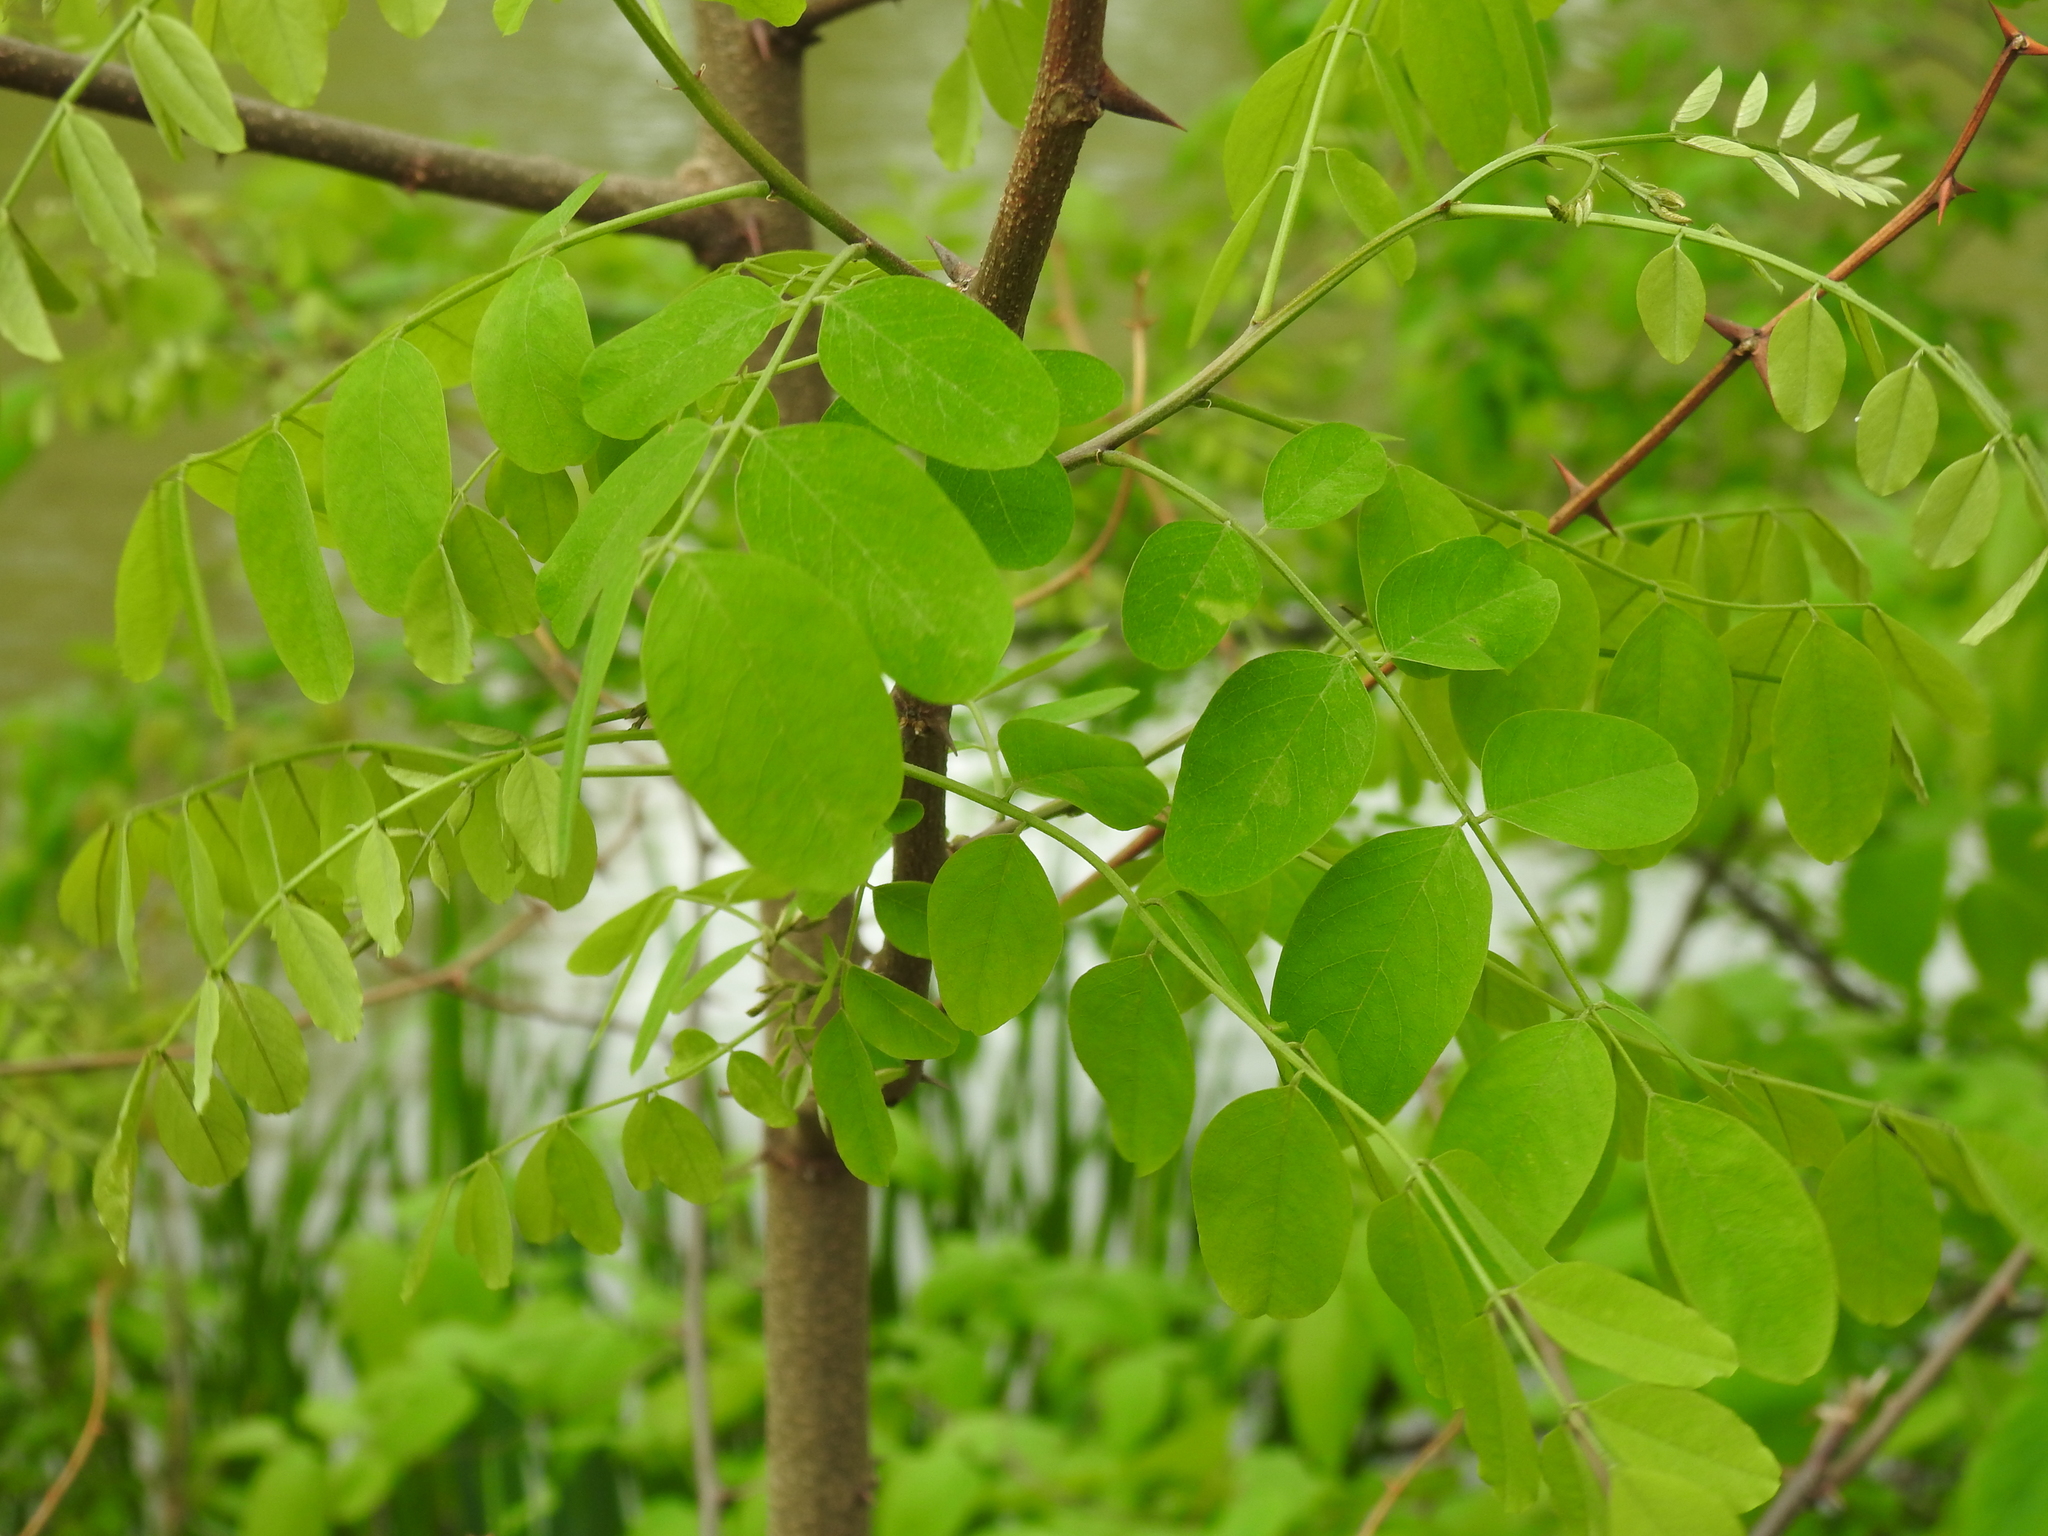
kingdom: Plantae
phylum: Tracheophyta
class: Magnoliopsida
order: Fabales
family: Fabaceae
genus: Robinia
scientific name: Robinia pseudoacacia
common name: Black locust
